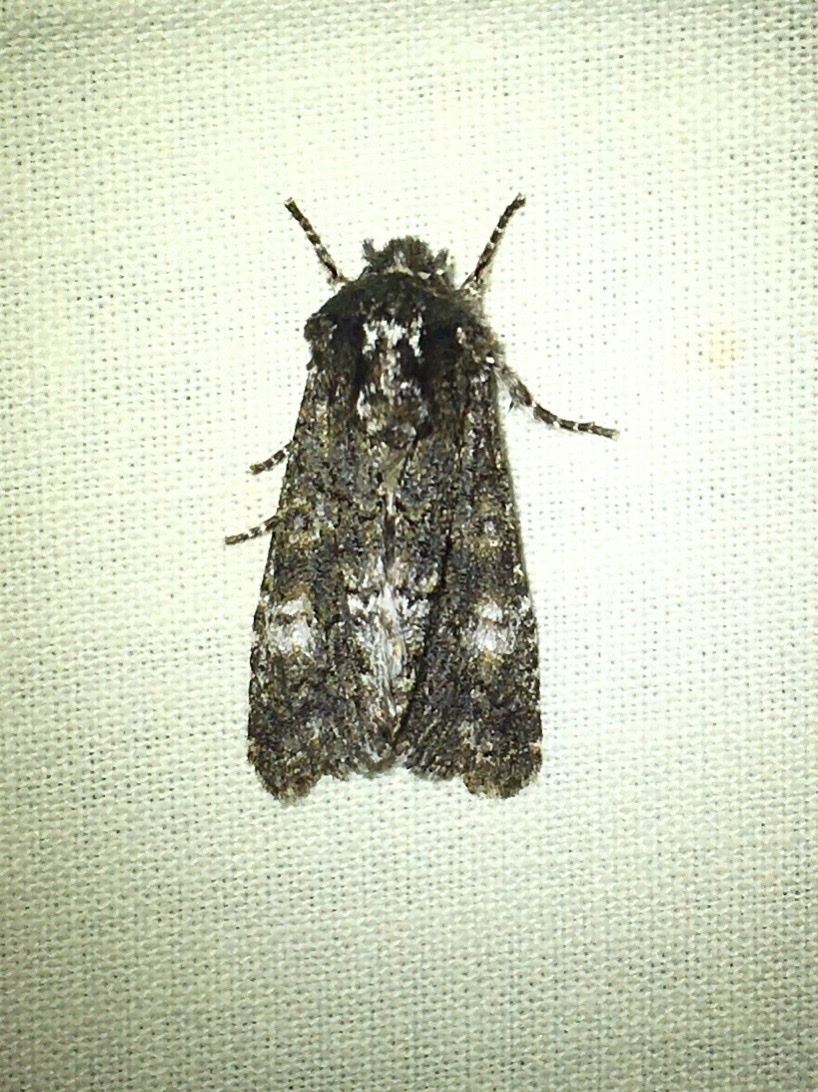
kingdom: Animalia
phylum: Arthropoda
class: Insecta
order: Lepidoptera
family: Noctuidae
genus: Psaphida
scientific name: Psaphida grotei
